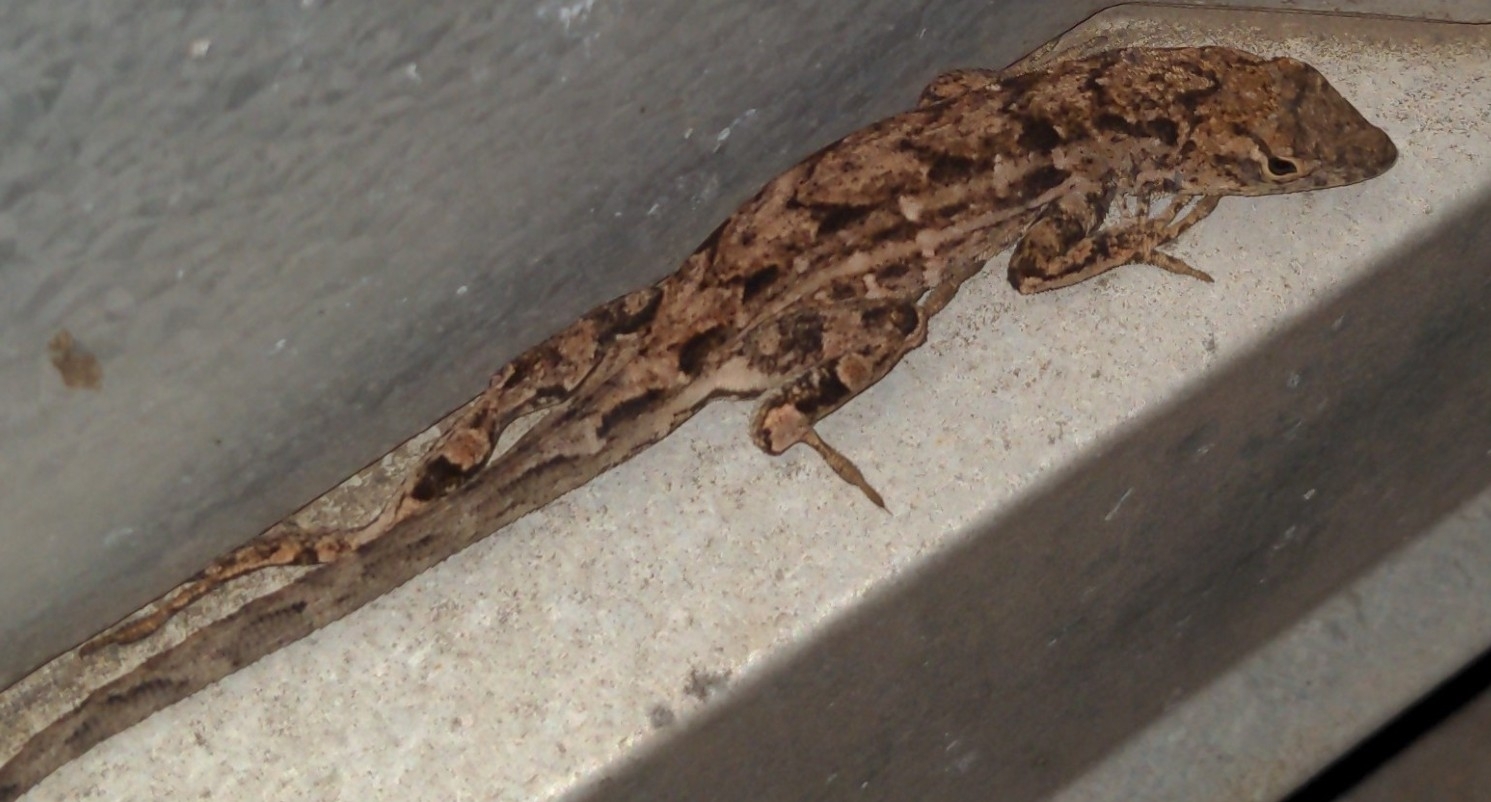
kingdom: Animalia
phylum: Chordata
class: Squamata
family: Dactyloidae
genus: Anolis
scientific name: Anolis sagrei
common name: Brown anole
